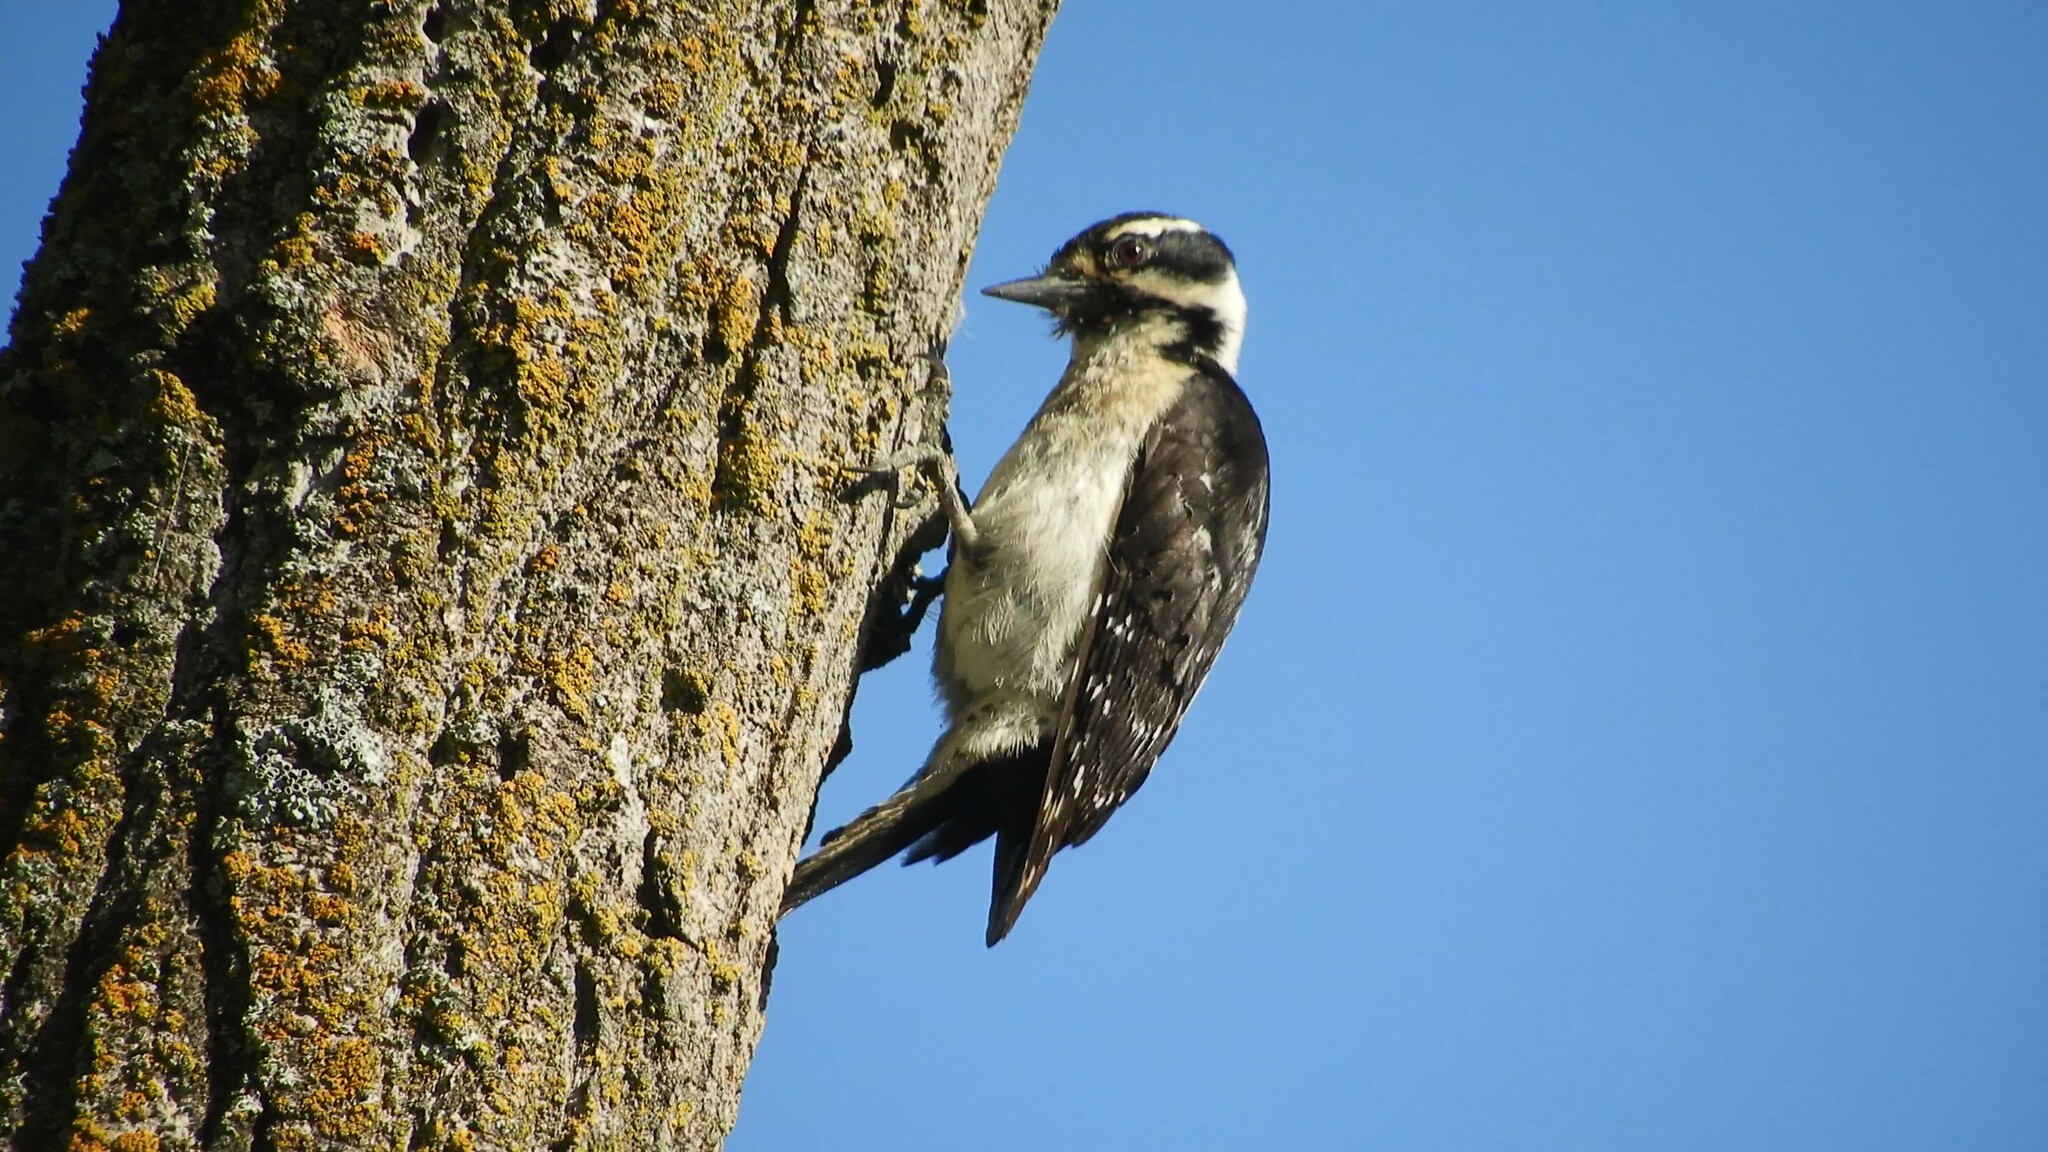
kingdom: Animalia
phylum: Chordata
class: Aves
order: Piciformes
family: Picidae
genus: Dryobates
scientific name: Dryobates pubescens
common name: Downy woodpecker
